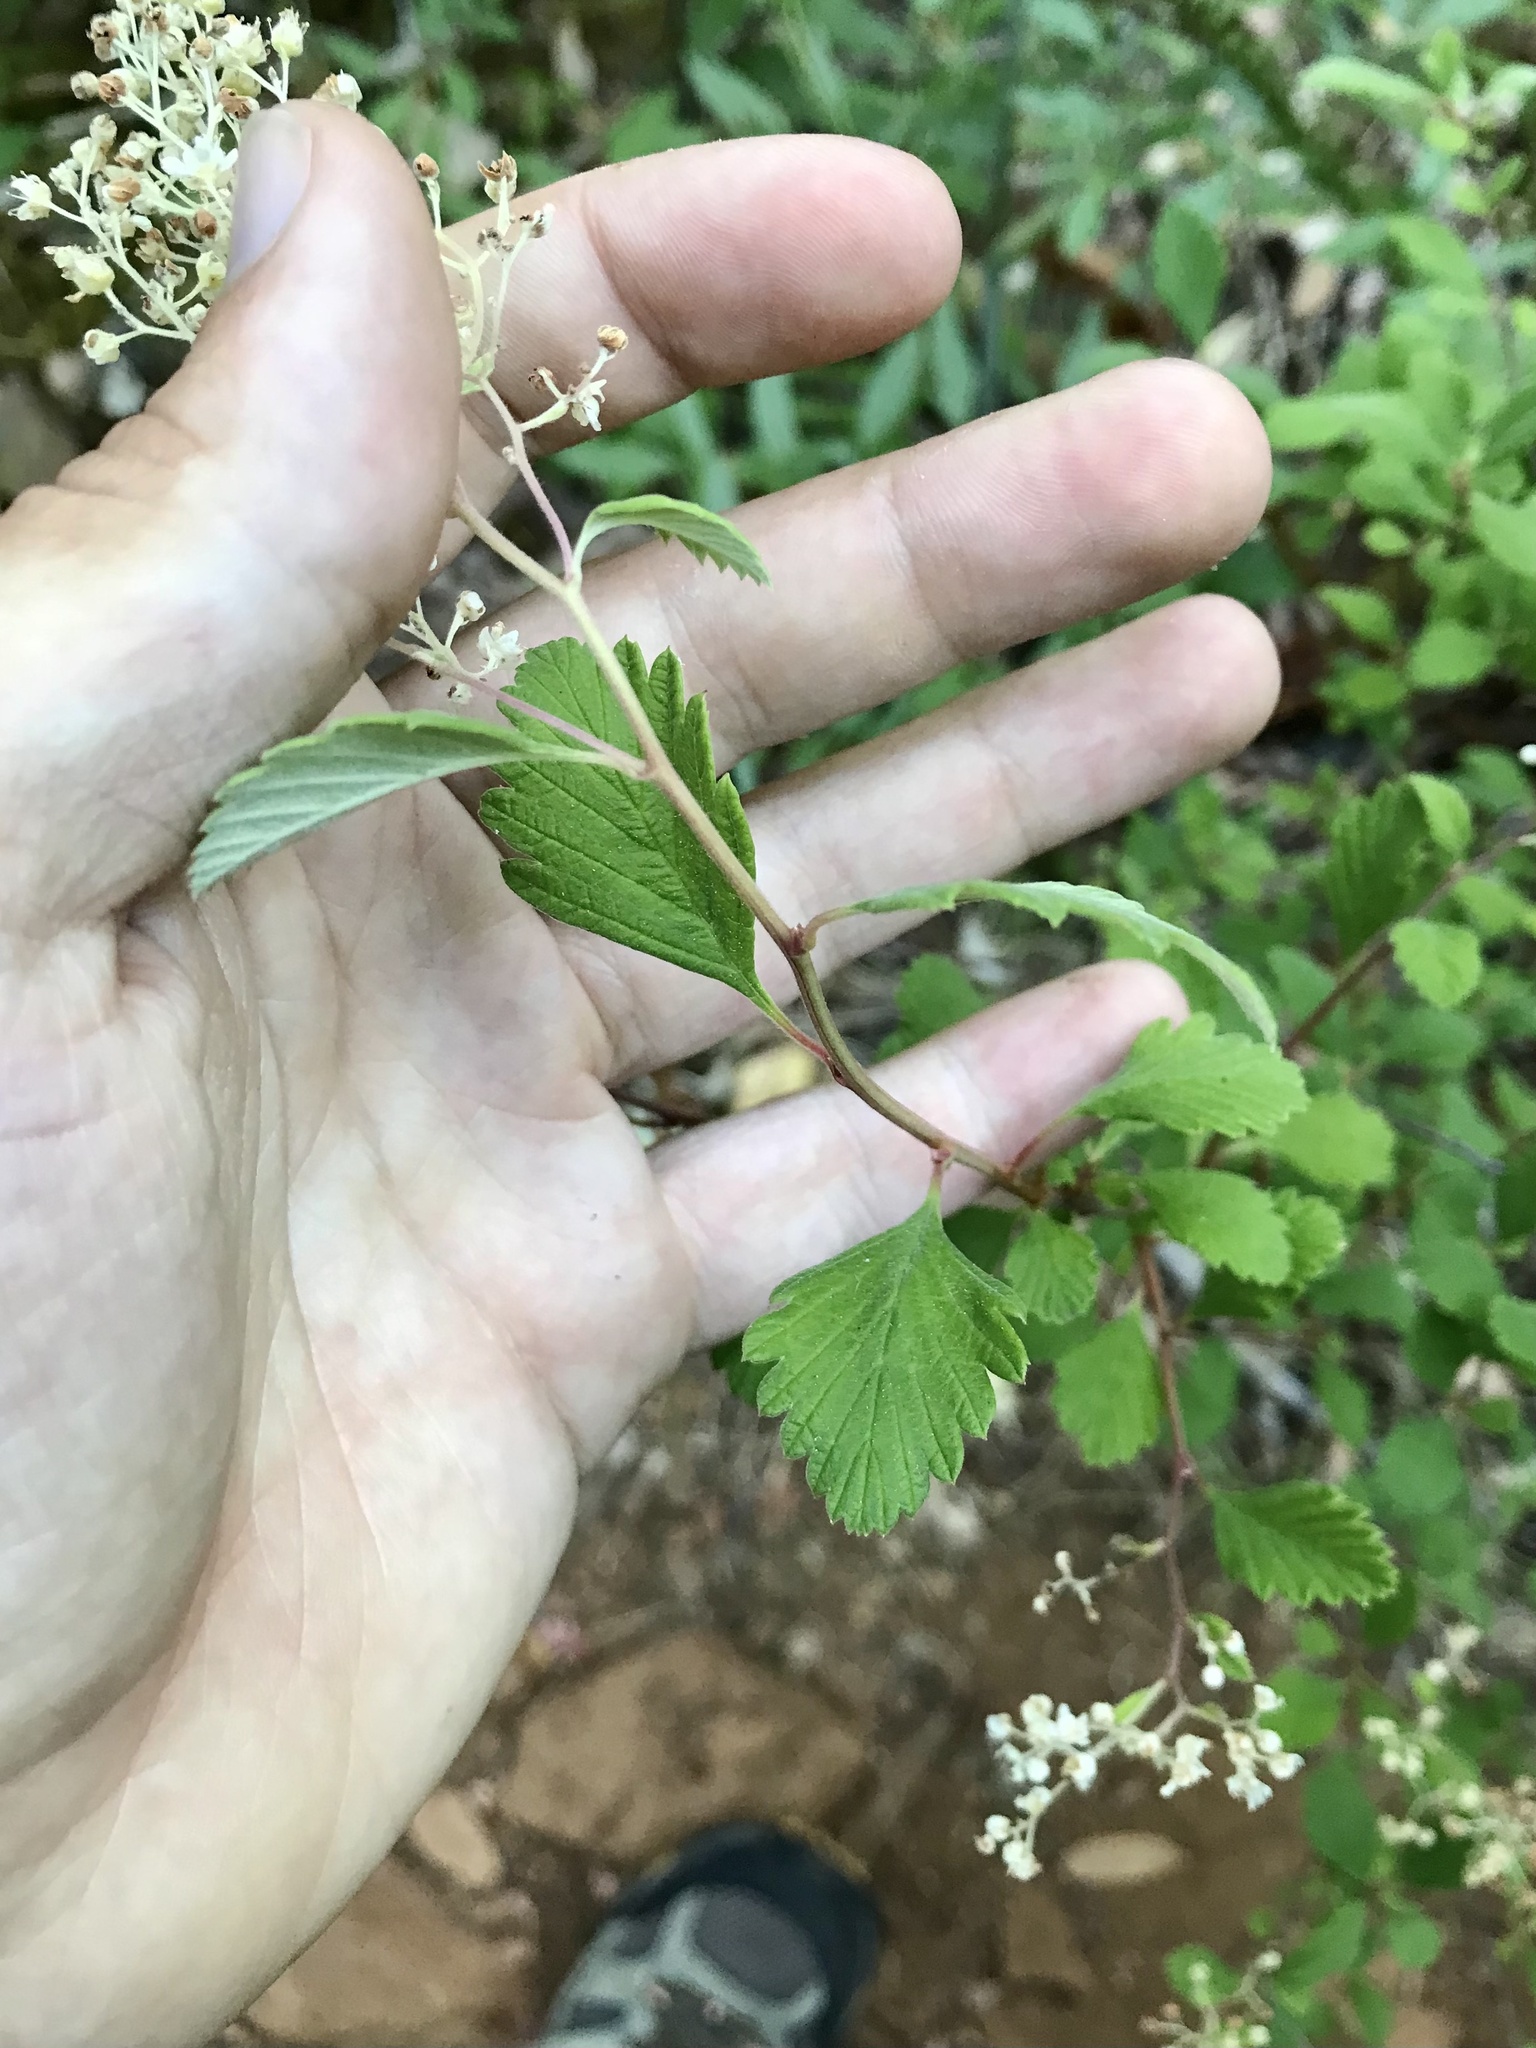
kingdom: Plantae
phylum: Tracheophyta
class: Magnoliopsida
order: Rosales
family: Rosaceae
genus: Holodiscus
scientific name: Holodiscus discolor
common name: Oceanspray
